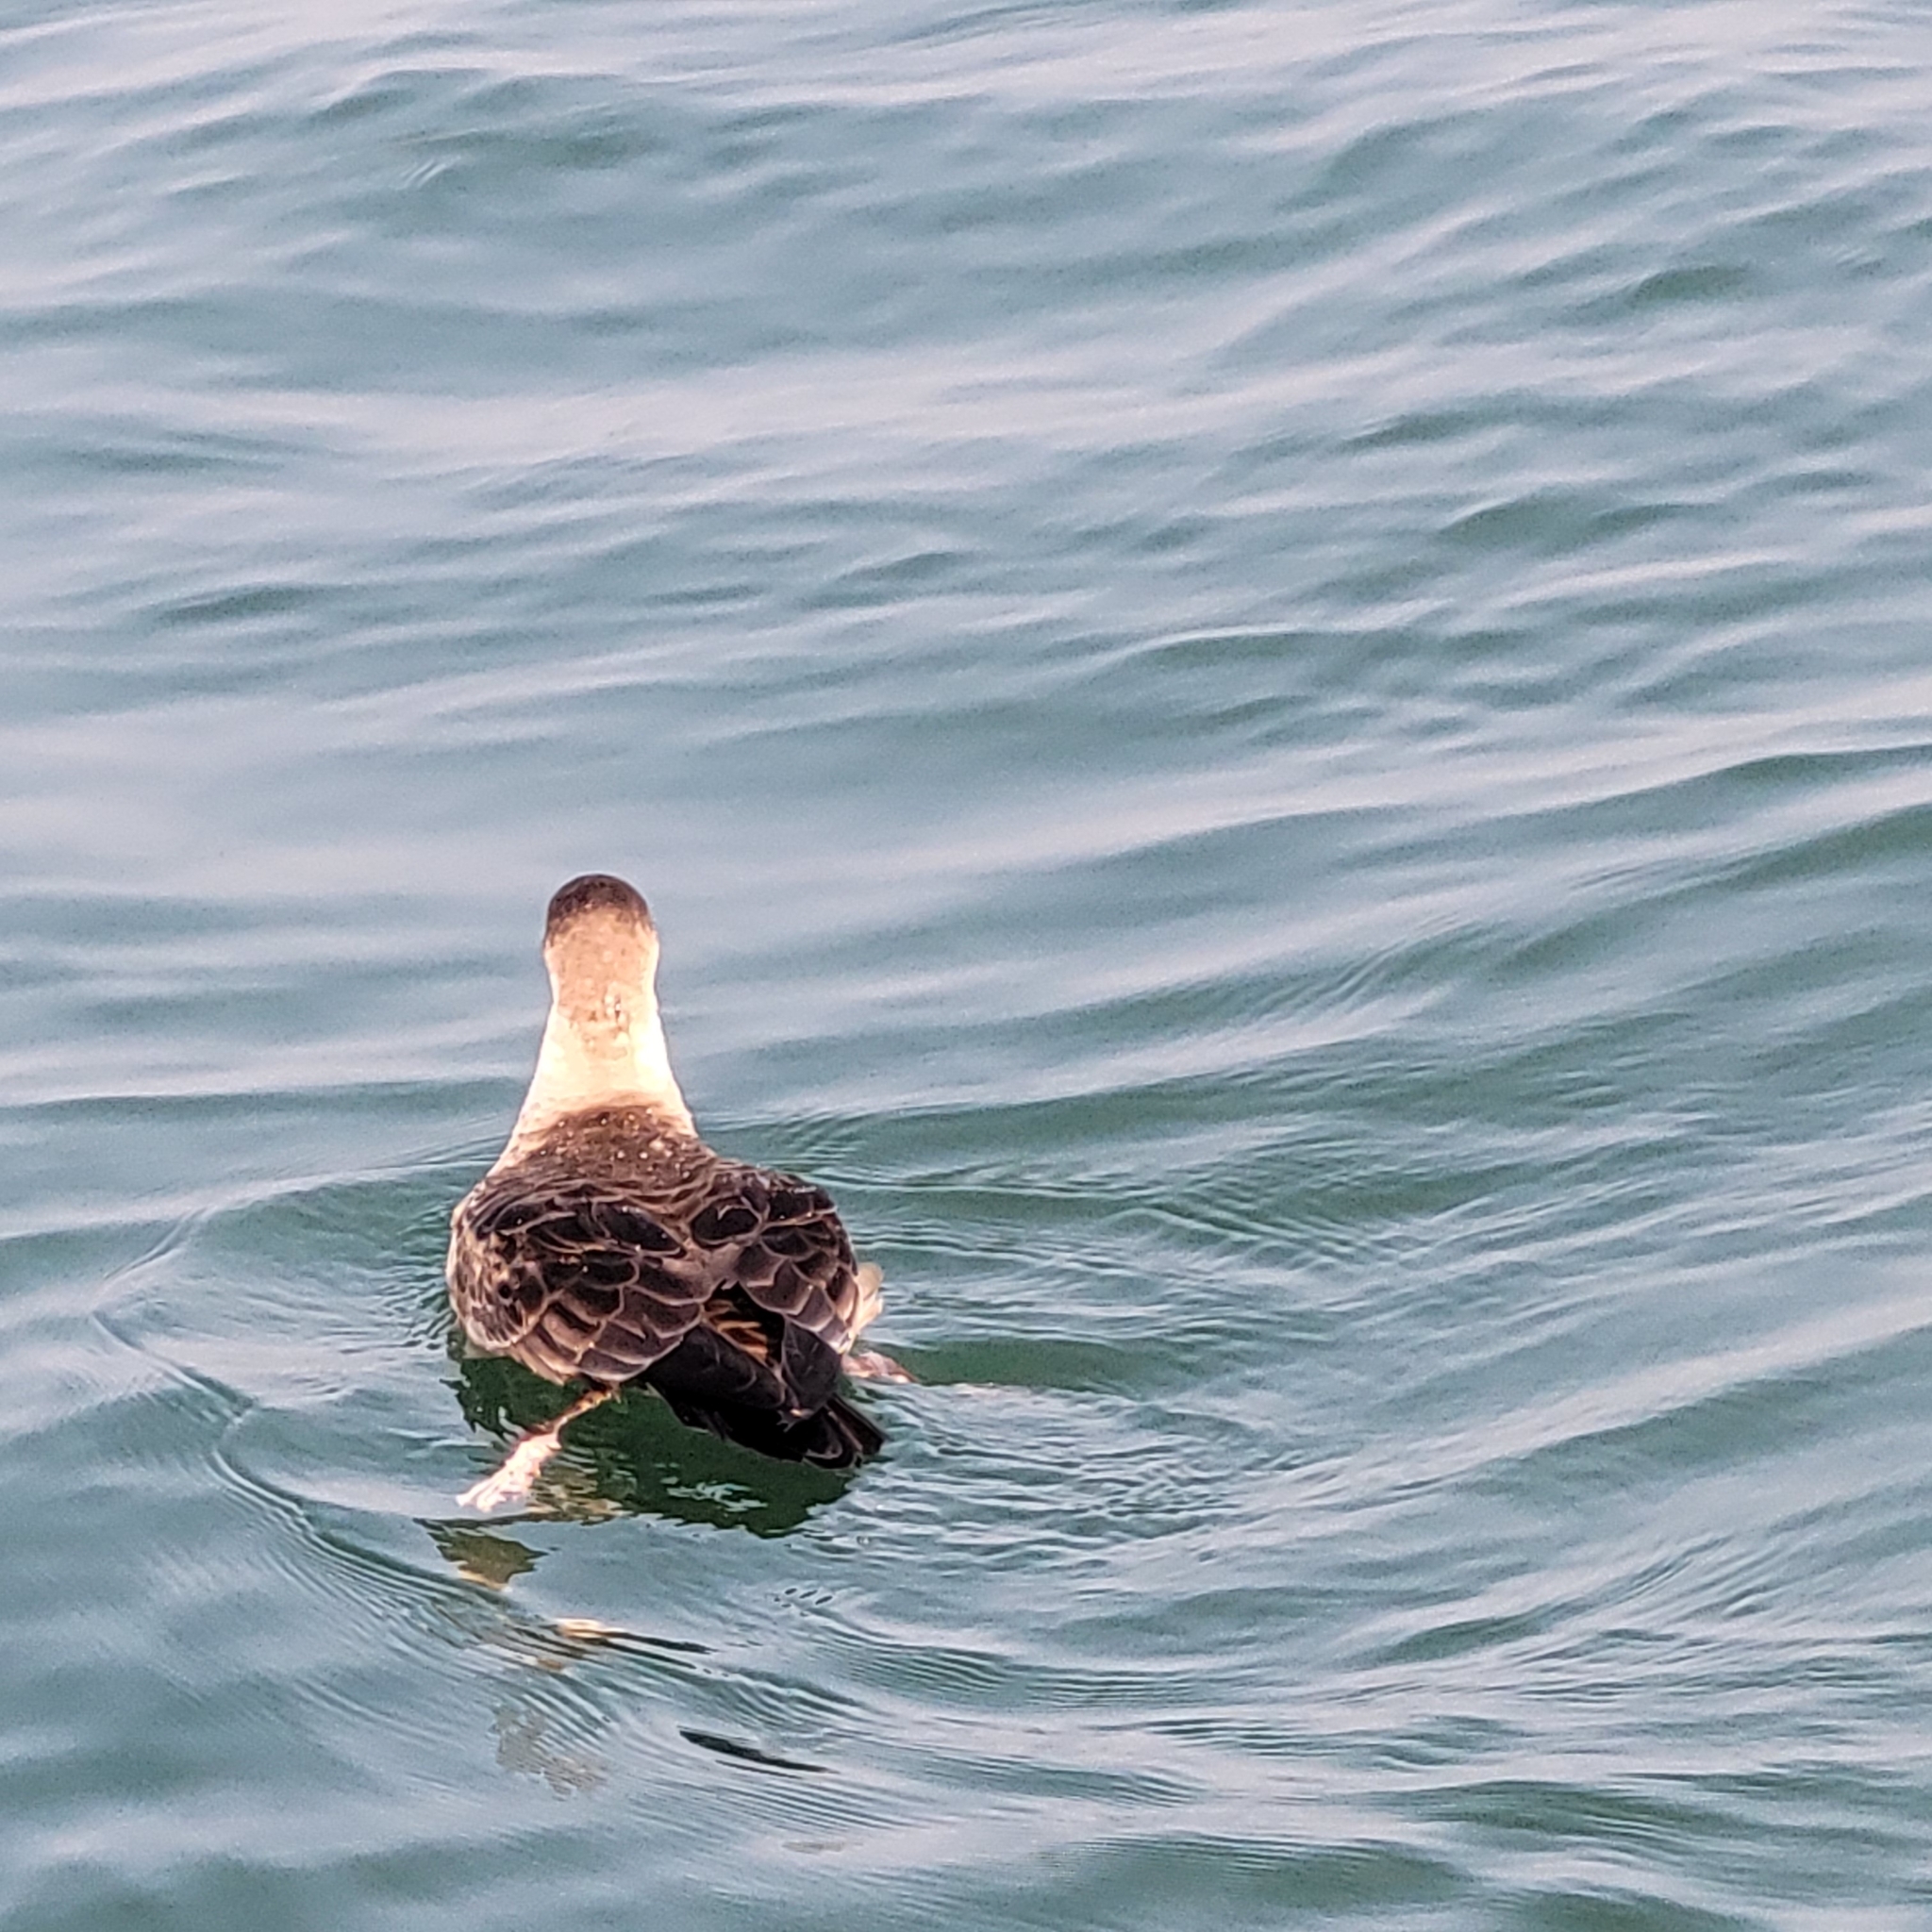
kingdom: Animalia
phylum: Chordata
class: Aves
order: Procellariiformes
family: Procellariidae
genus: Puffinus
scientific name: Puffinus gravis
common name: Great shearwater
